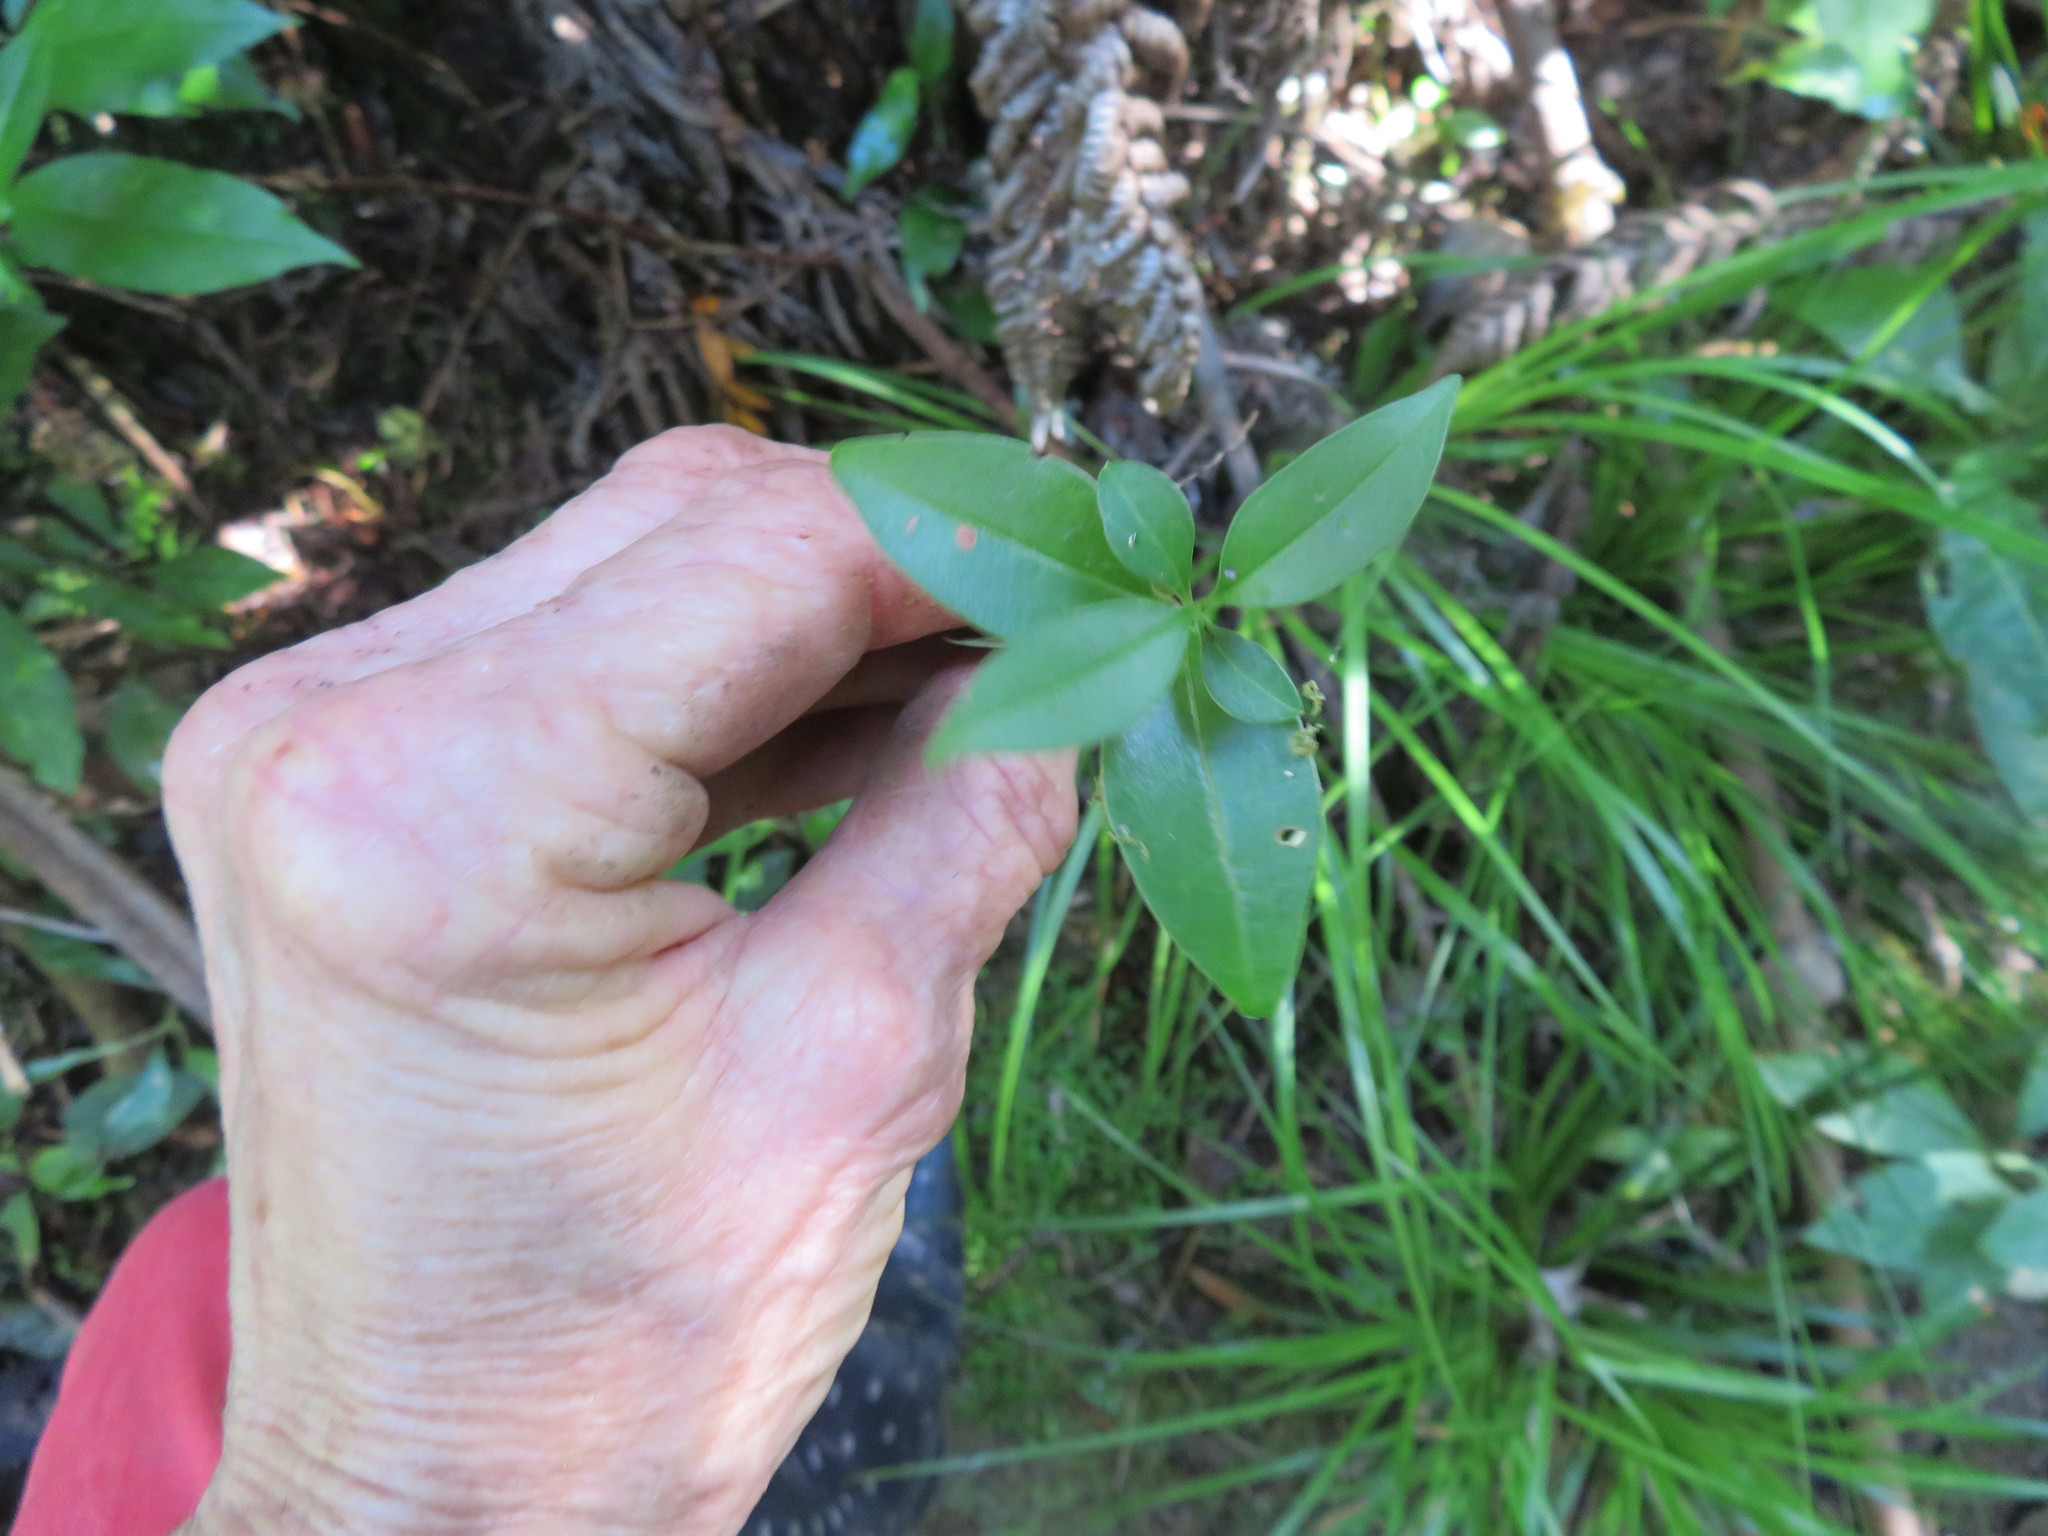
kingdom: Plantae
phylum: Tracheophyta
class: Magnoliopsida
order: Lamiales
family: Oleaceae
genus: Ligustrum
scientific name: Ligustrum lucidum
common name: Glossy privet
